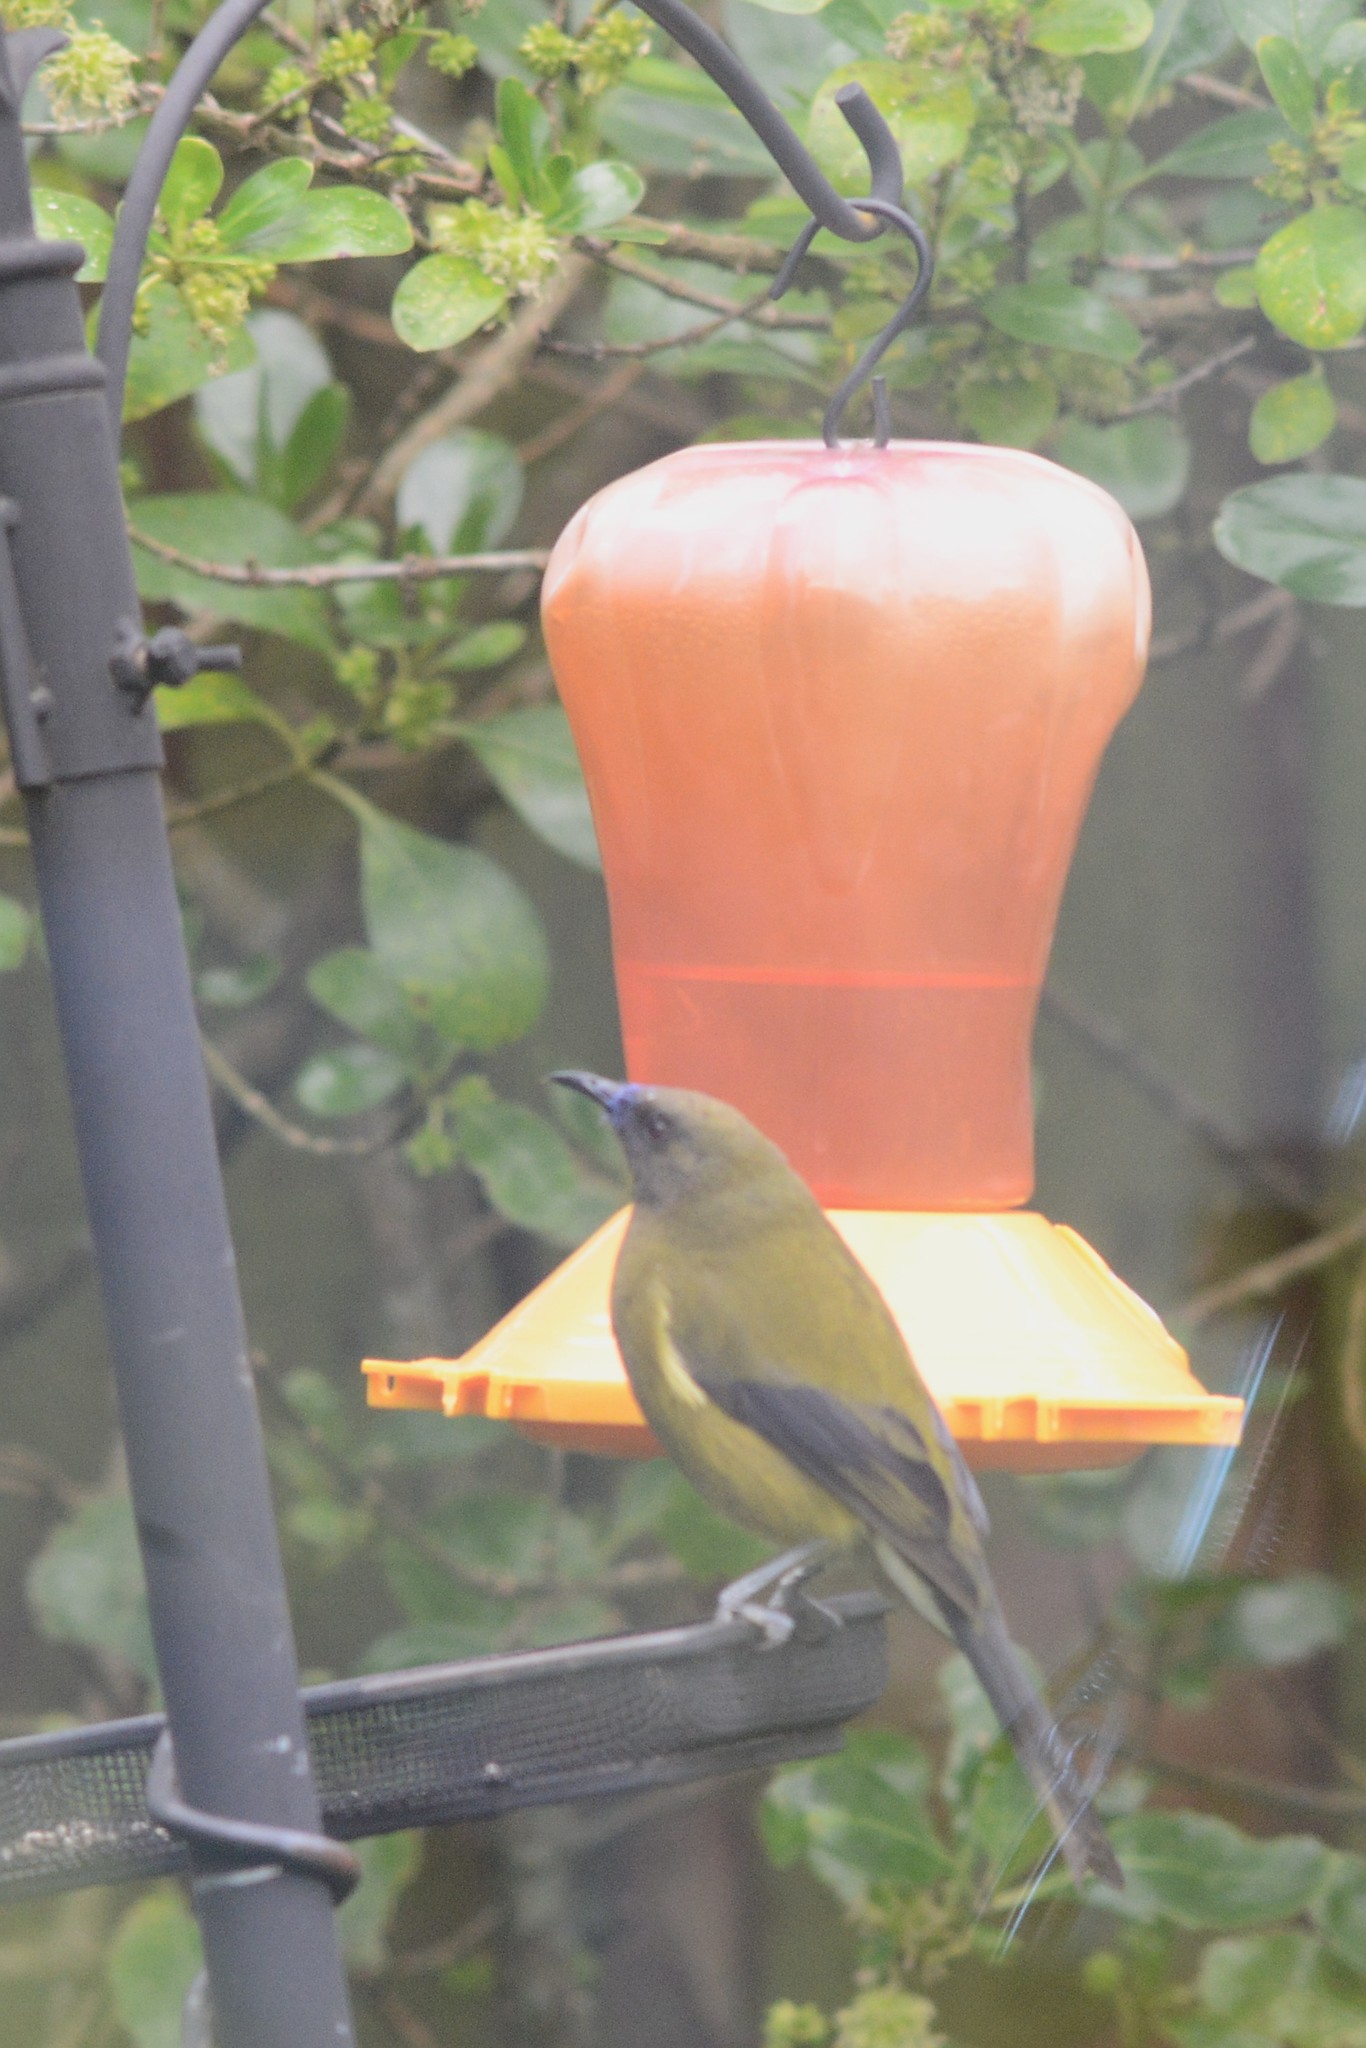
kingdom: Animalia
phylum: Chordata
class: Aves
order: Passeriformes
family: Meliphagidae
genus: Anthornis
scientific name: Anthornis melanura
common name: New zealand bellbird
